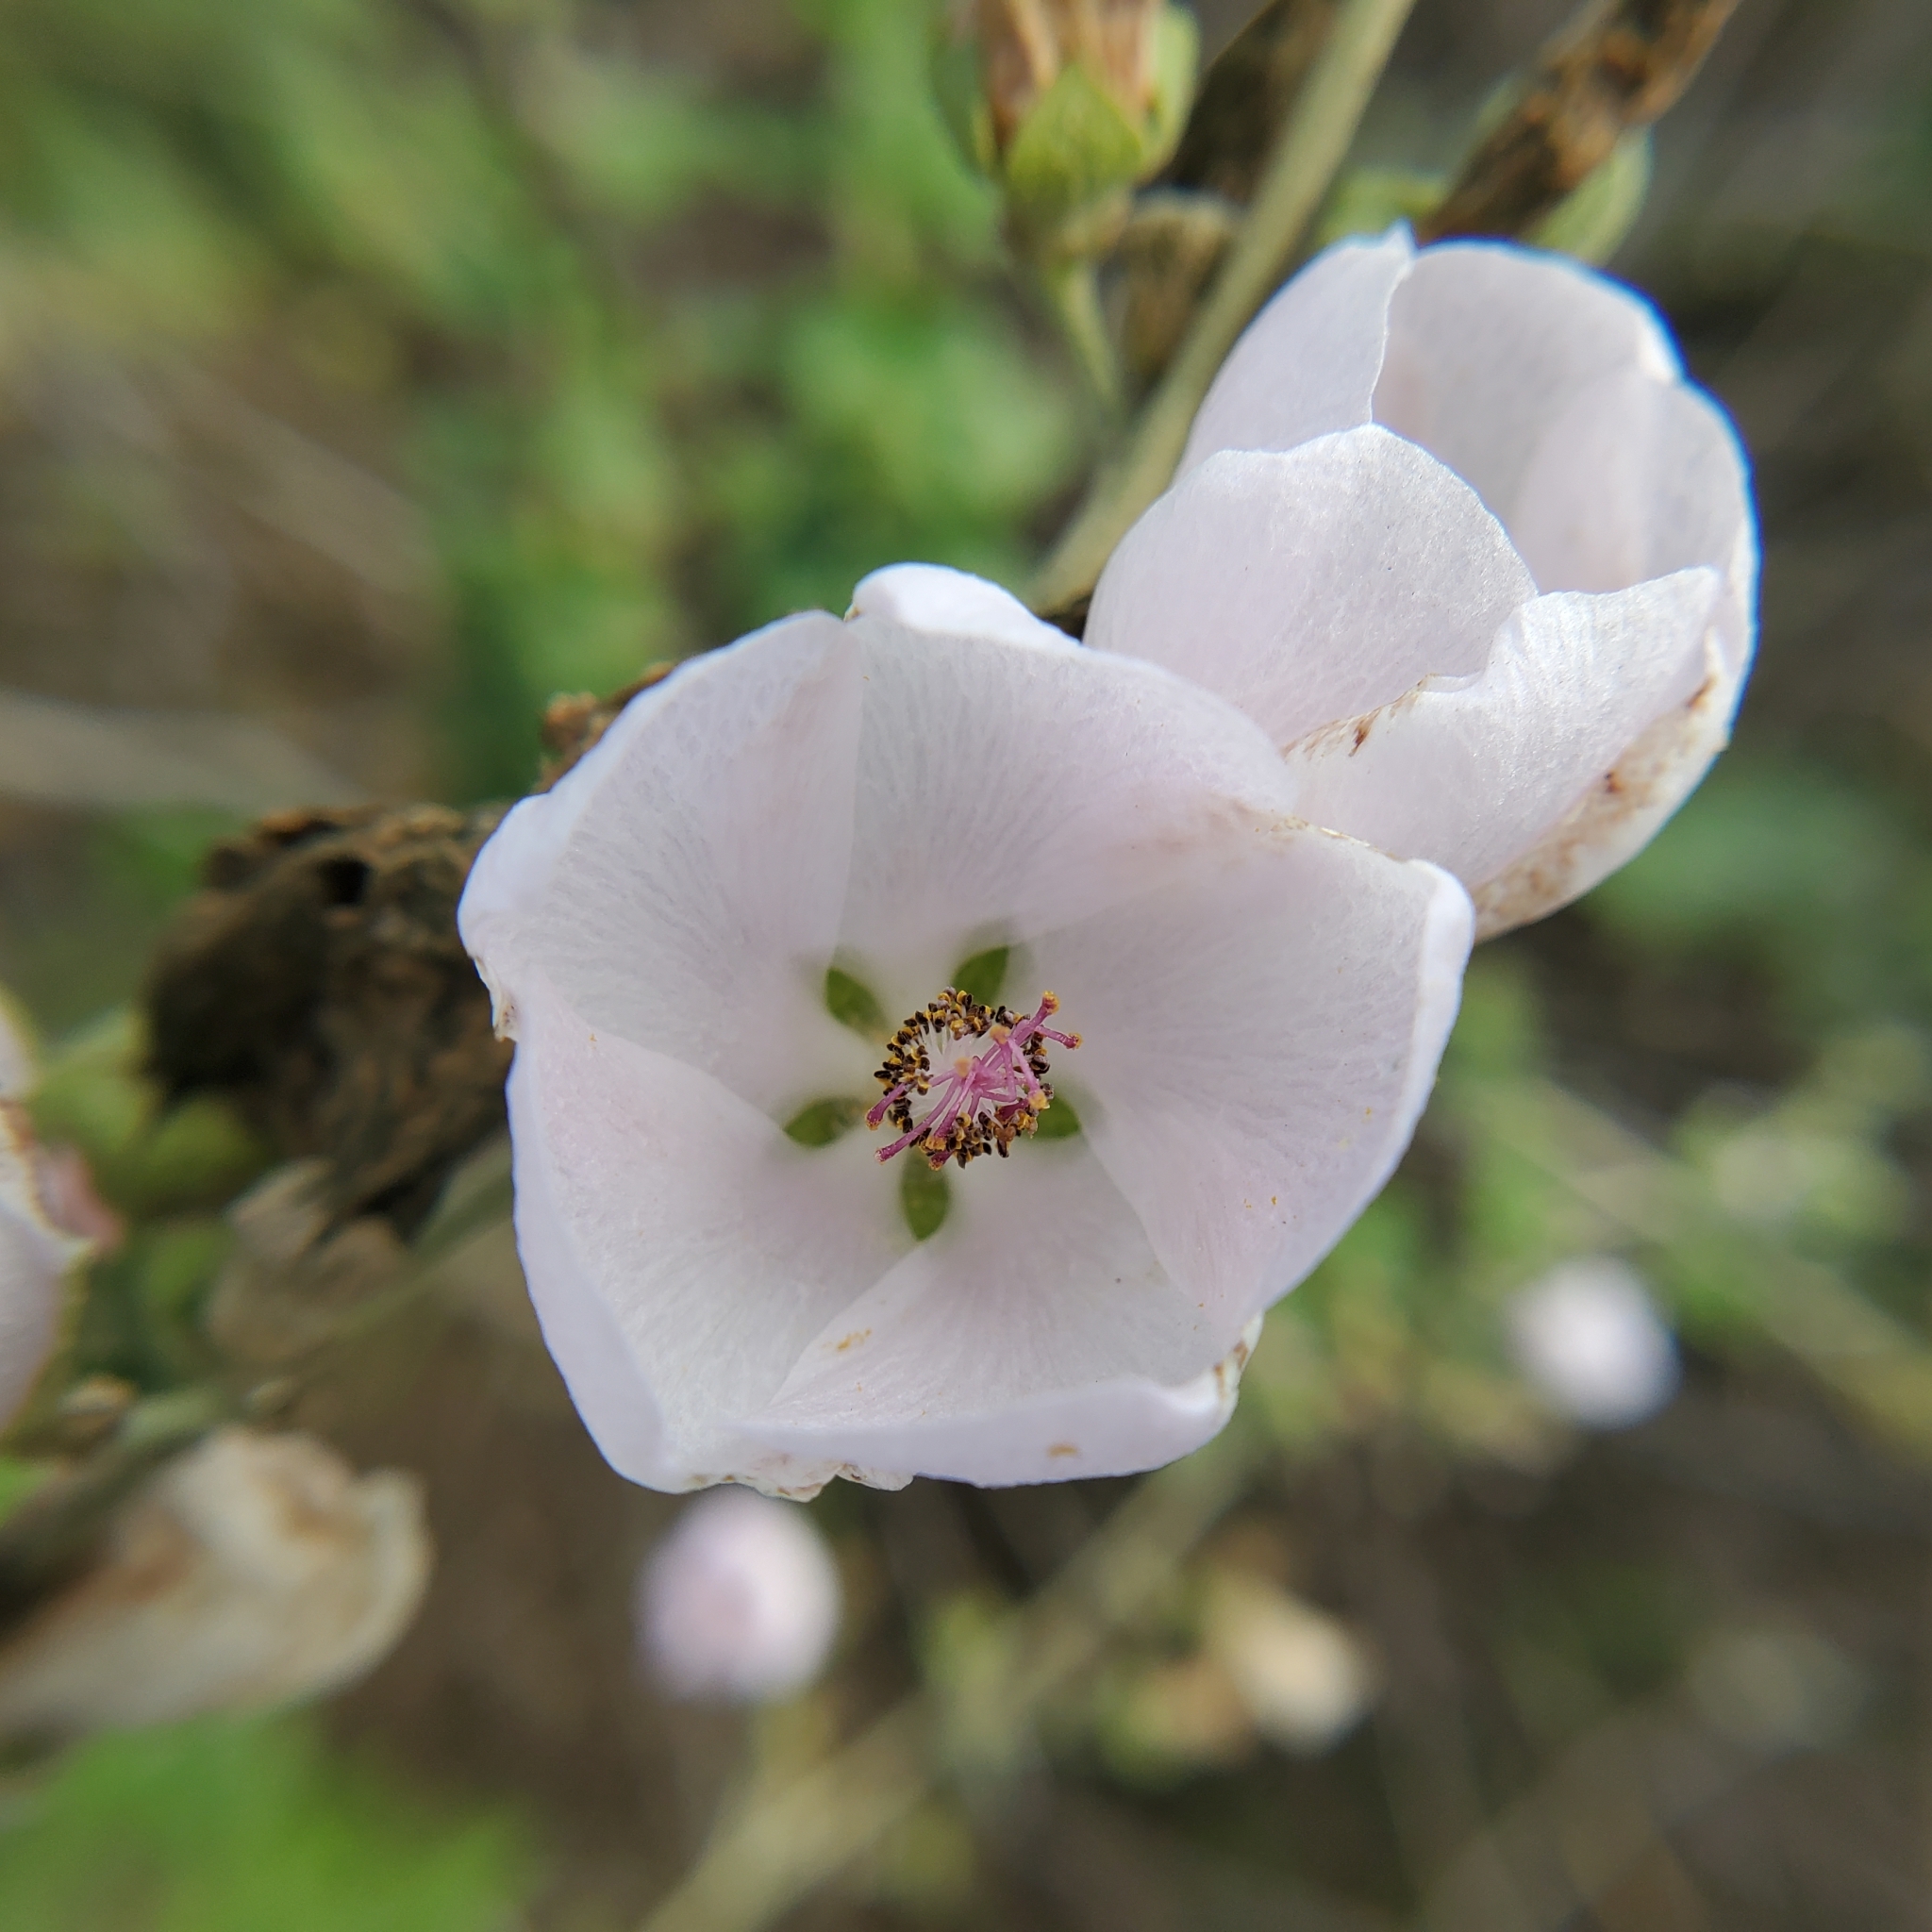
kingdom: Plantae
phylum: Tracheophyta
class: Magnoliopsida
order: Malvales
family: Malvaceae
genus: Malacothamnus
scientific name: Malacothamnus fasciculatus
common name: Sant cruz island bush-mallow
